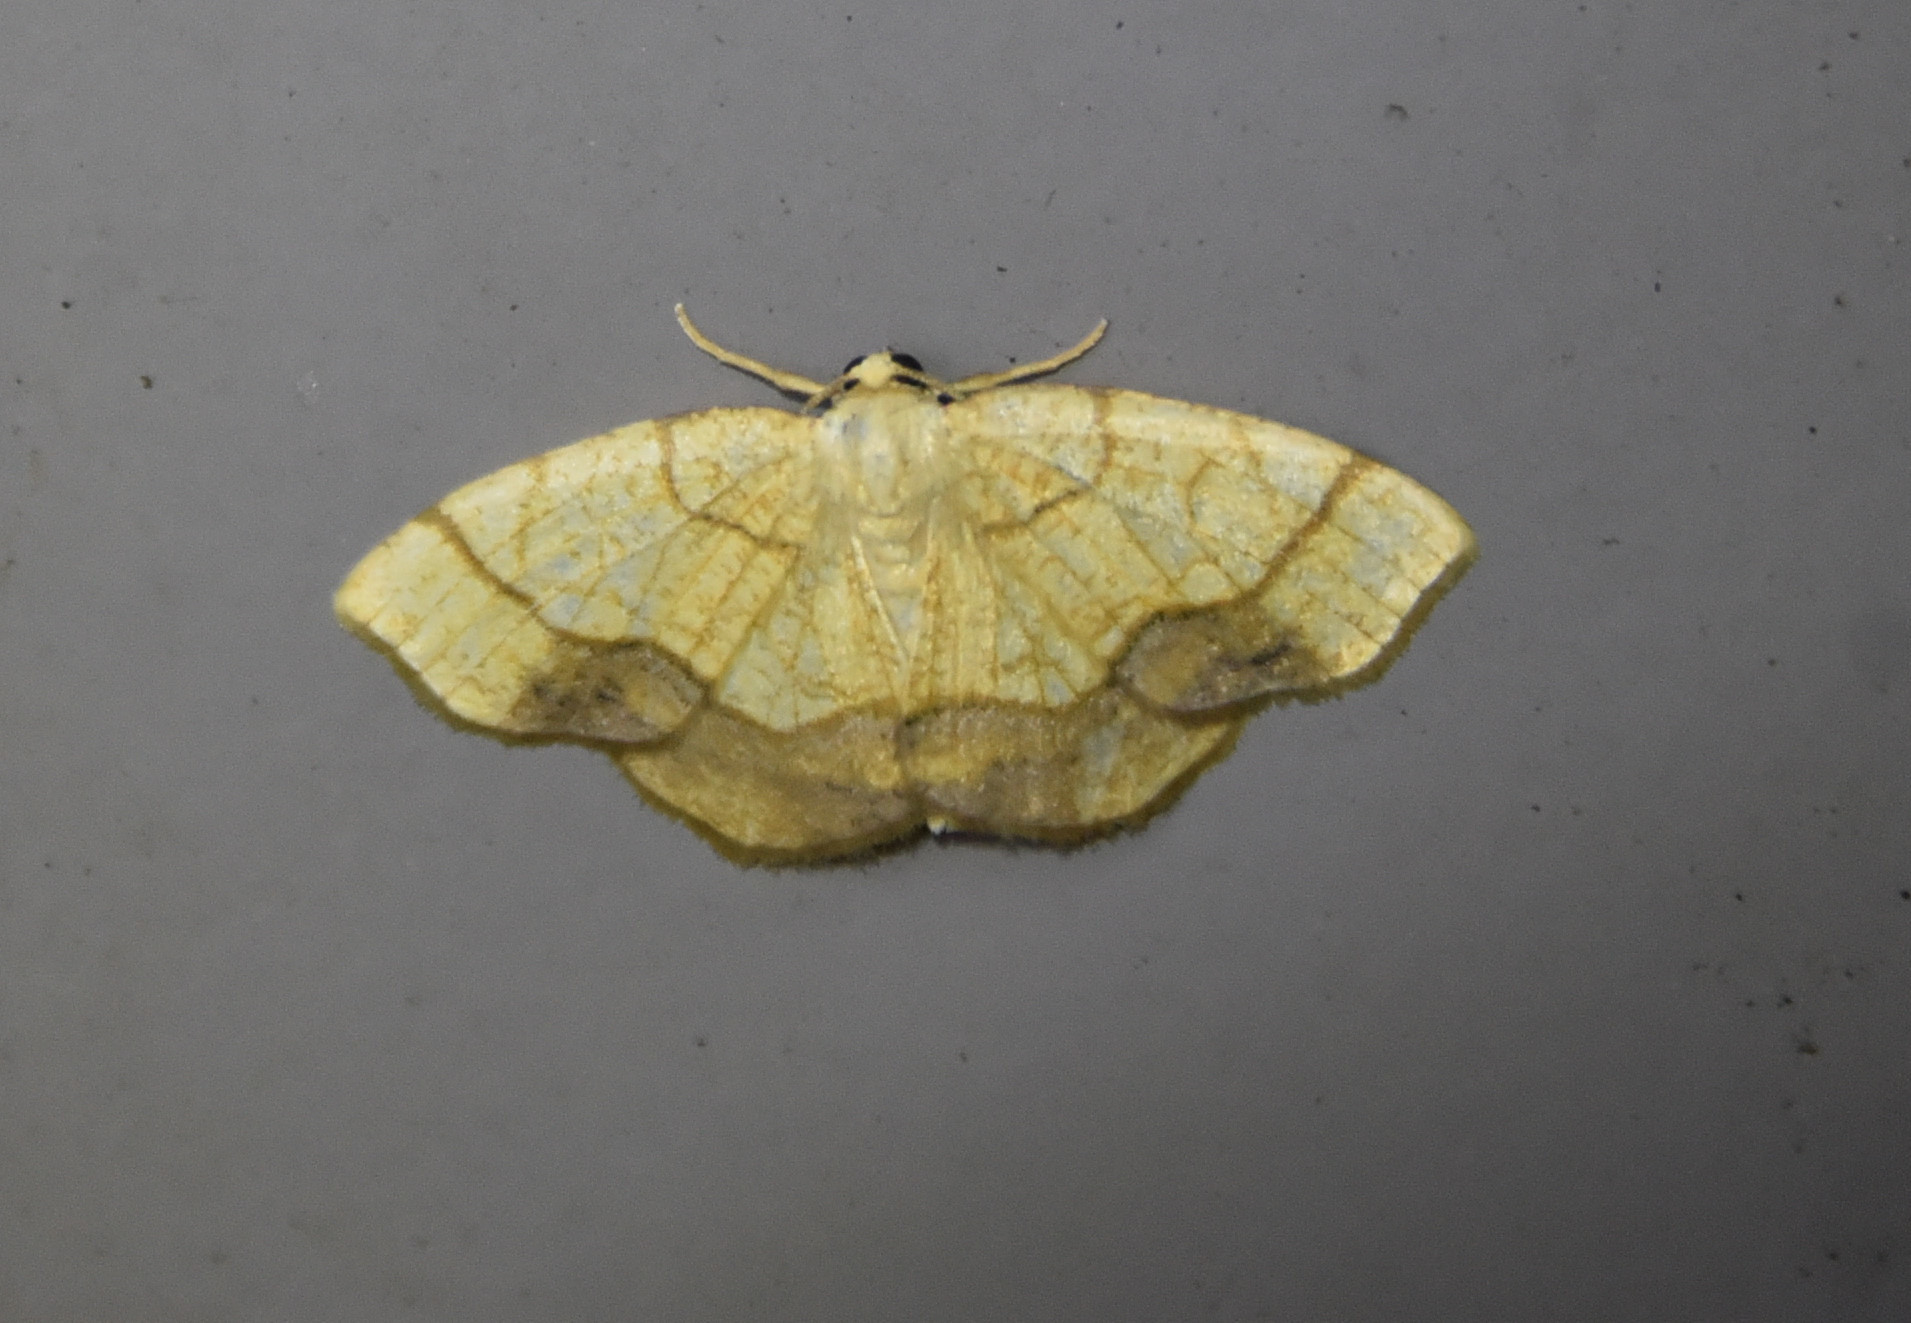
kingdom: Animalia
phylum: Arthropoda
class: Insecta
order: Lepidoptera
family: Geometridae
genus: Nematocampa
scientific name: Nematocampa resistaria
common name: Horned spanworm moth
